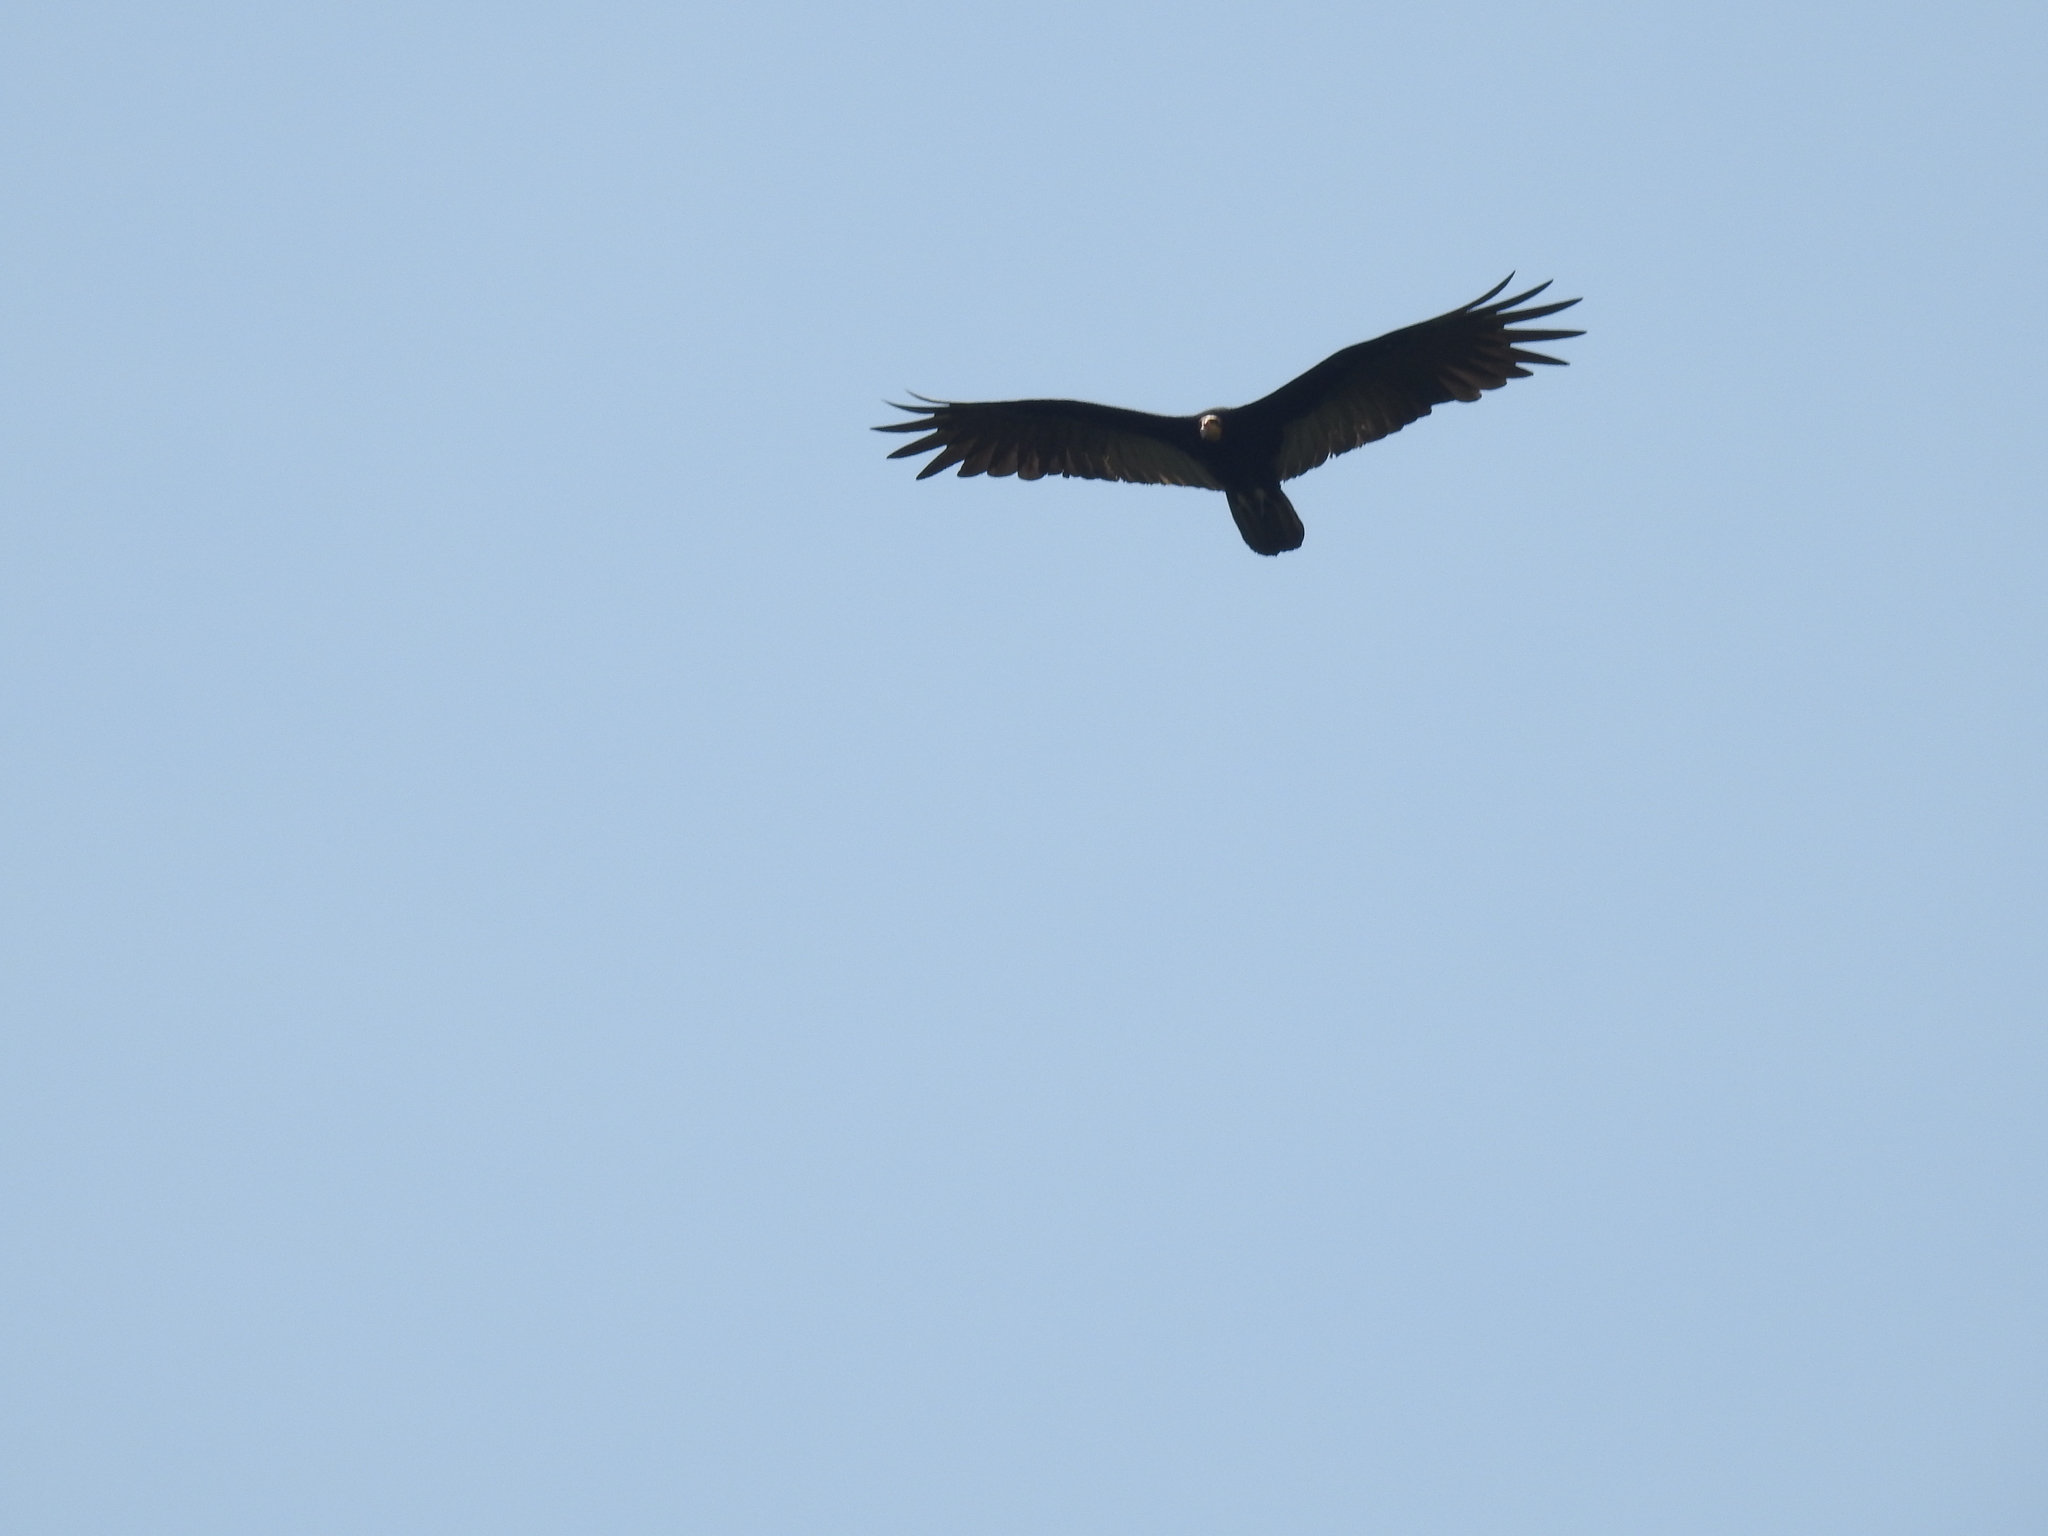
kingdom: Animalia
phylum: Chordata
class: Aves
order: Accipitriformes
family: Cathartidae
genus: Cathartes
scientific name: Cathartes melambrotus
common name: Greater yellow-headed vulture
